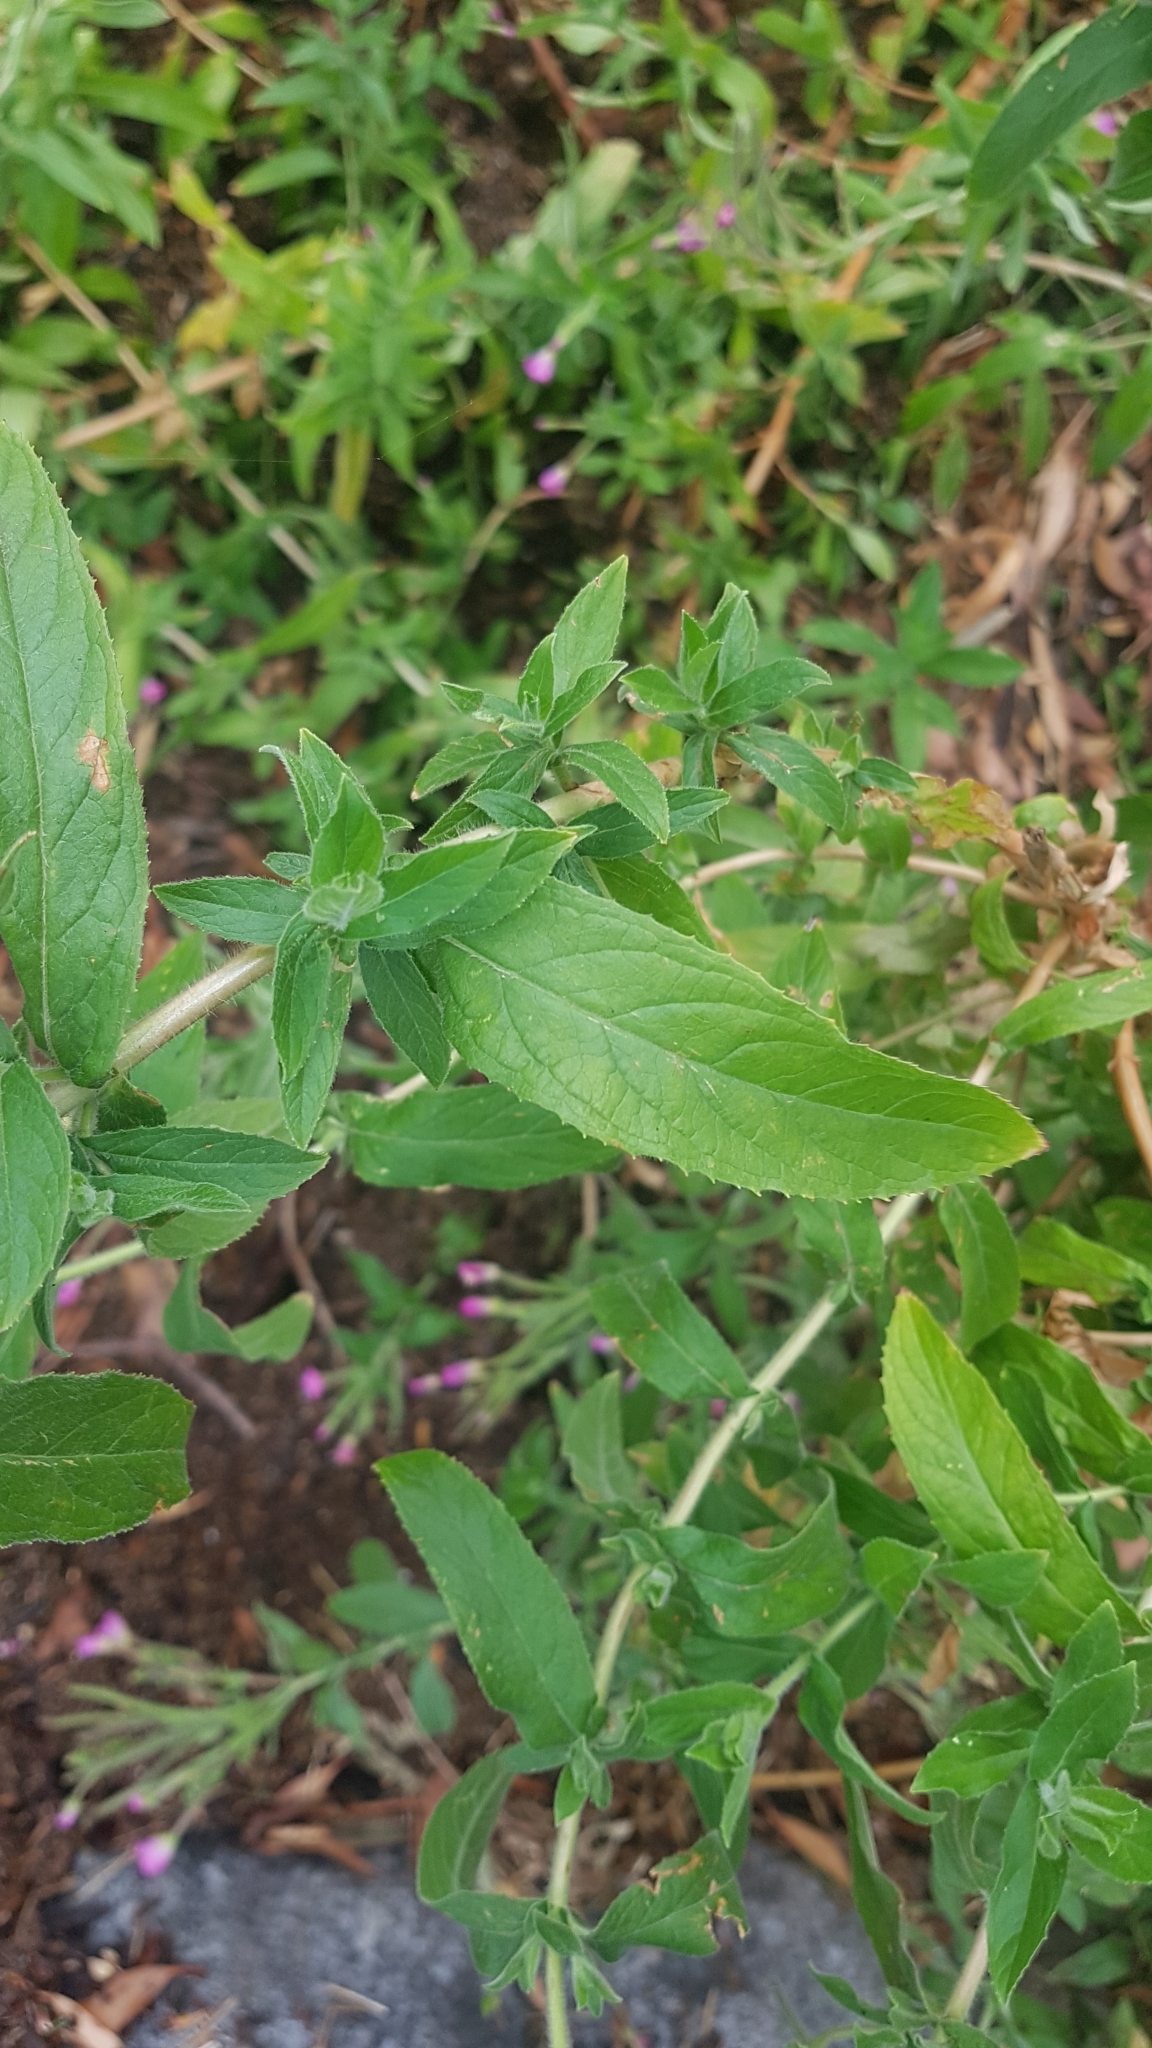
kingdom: Plantae
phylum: Tracheophyta
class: Magnoliopsida
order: Myrtales
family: Onagraceae
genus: Epilobium
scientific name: Epilobium hirsutum
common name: Great willowherb
